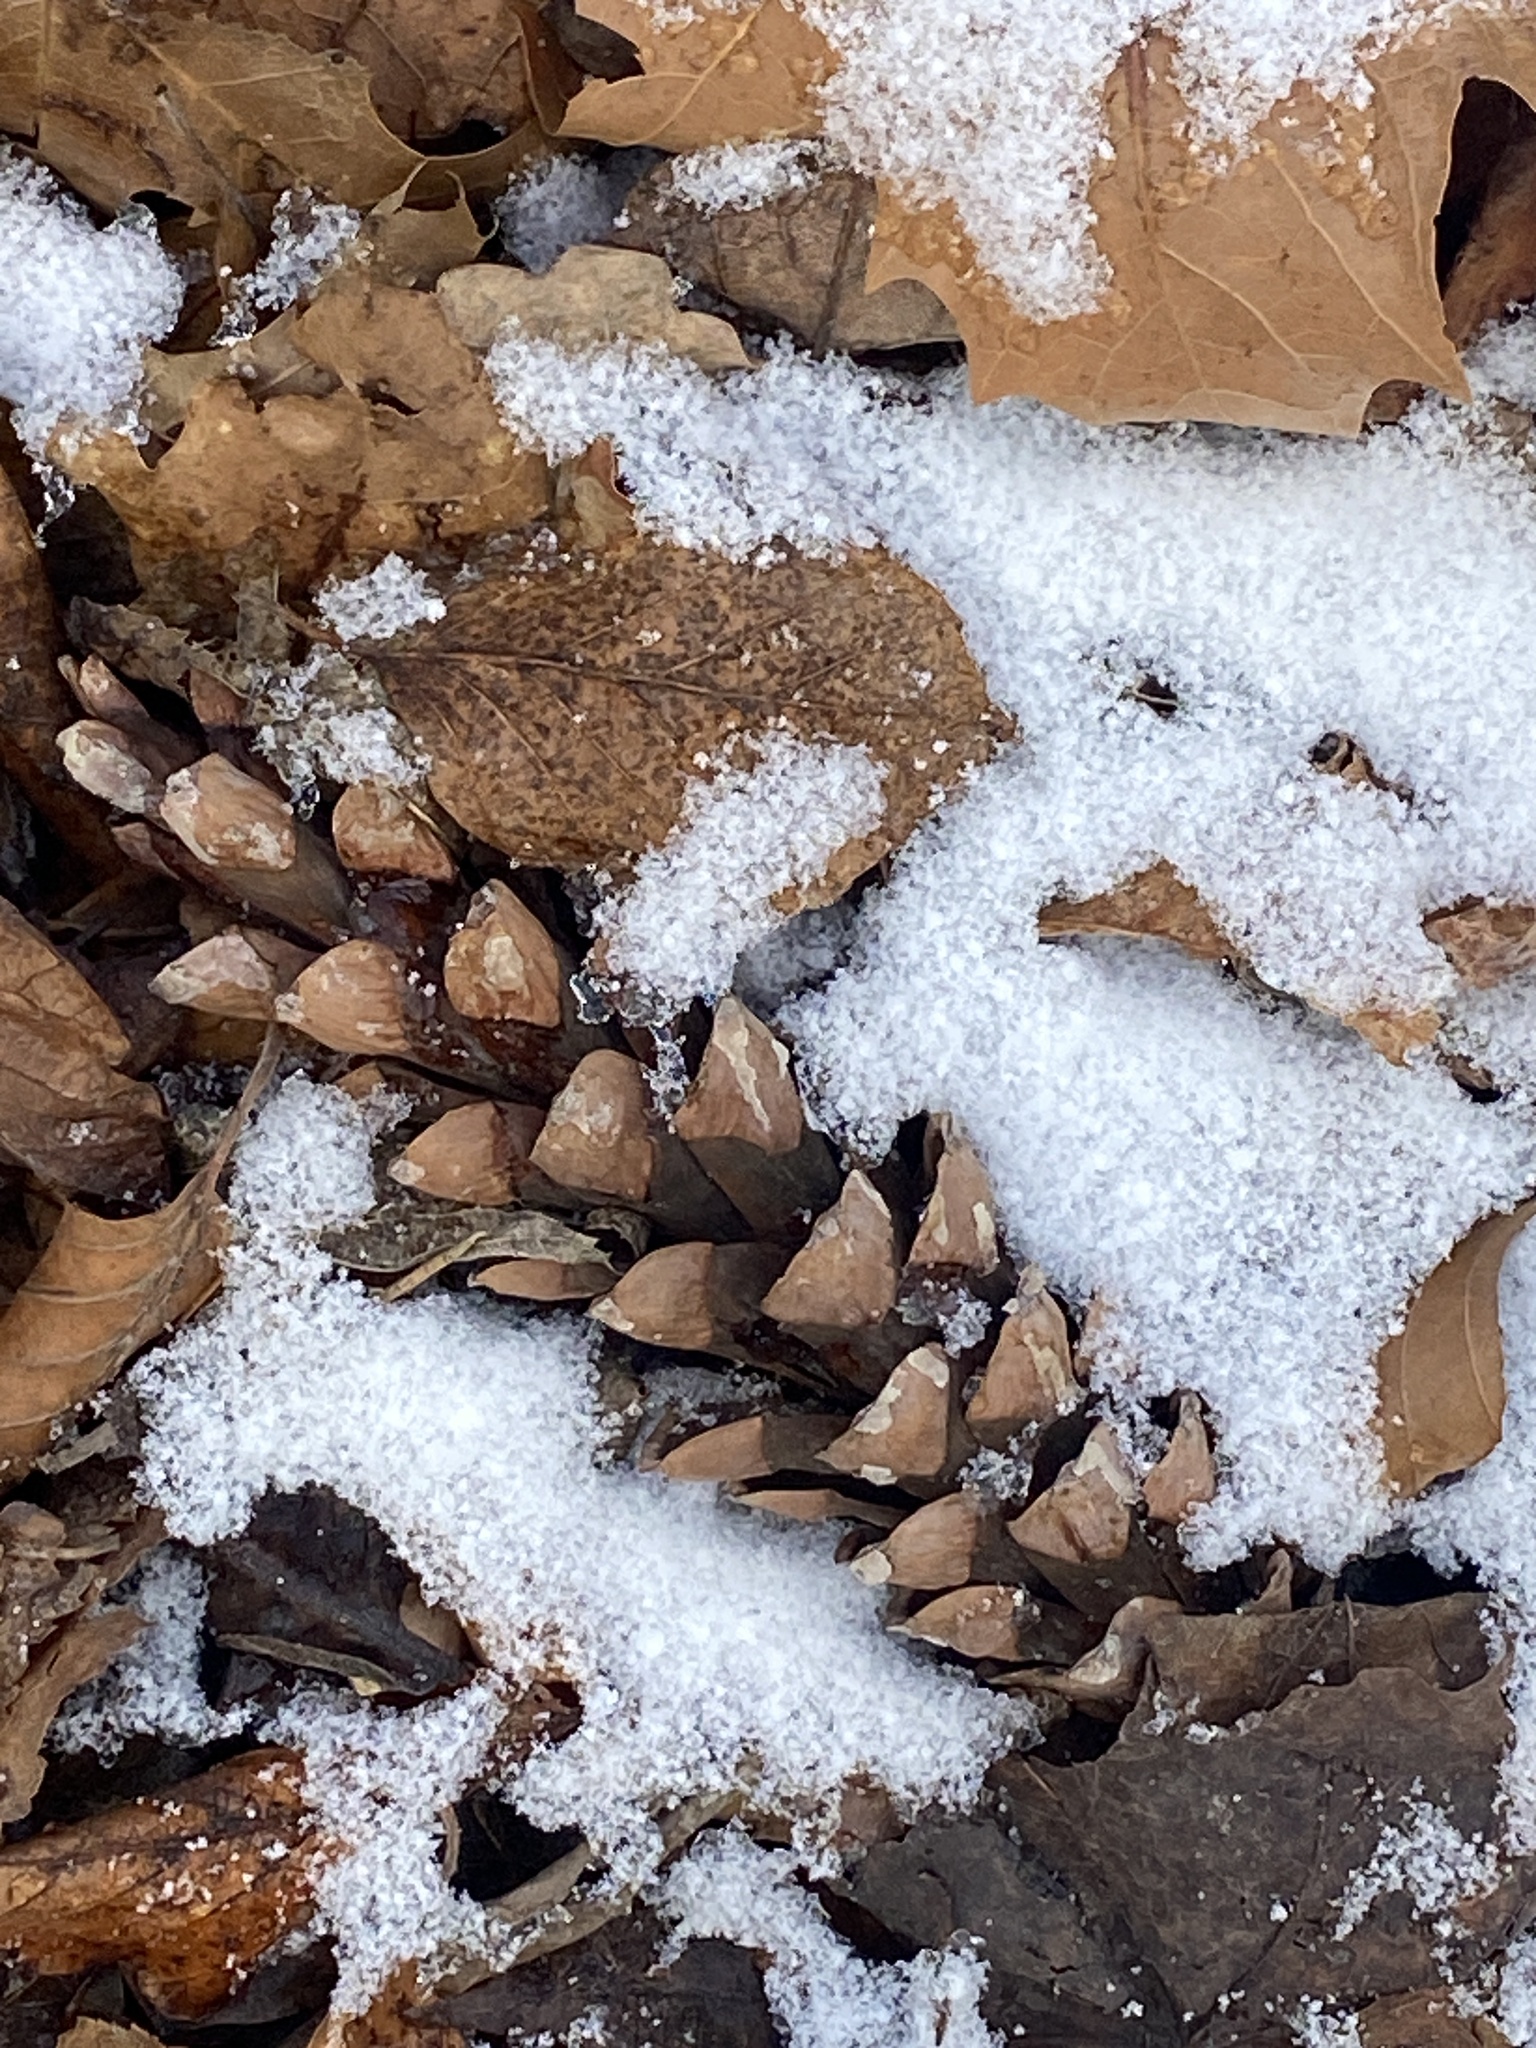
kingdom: Plantae
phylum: Tracheophyta
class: Pinopsida
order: Pinales
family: Pinaceae
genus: Pinus
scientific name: Pinus strobus
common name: Weymouth pine
